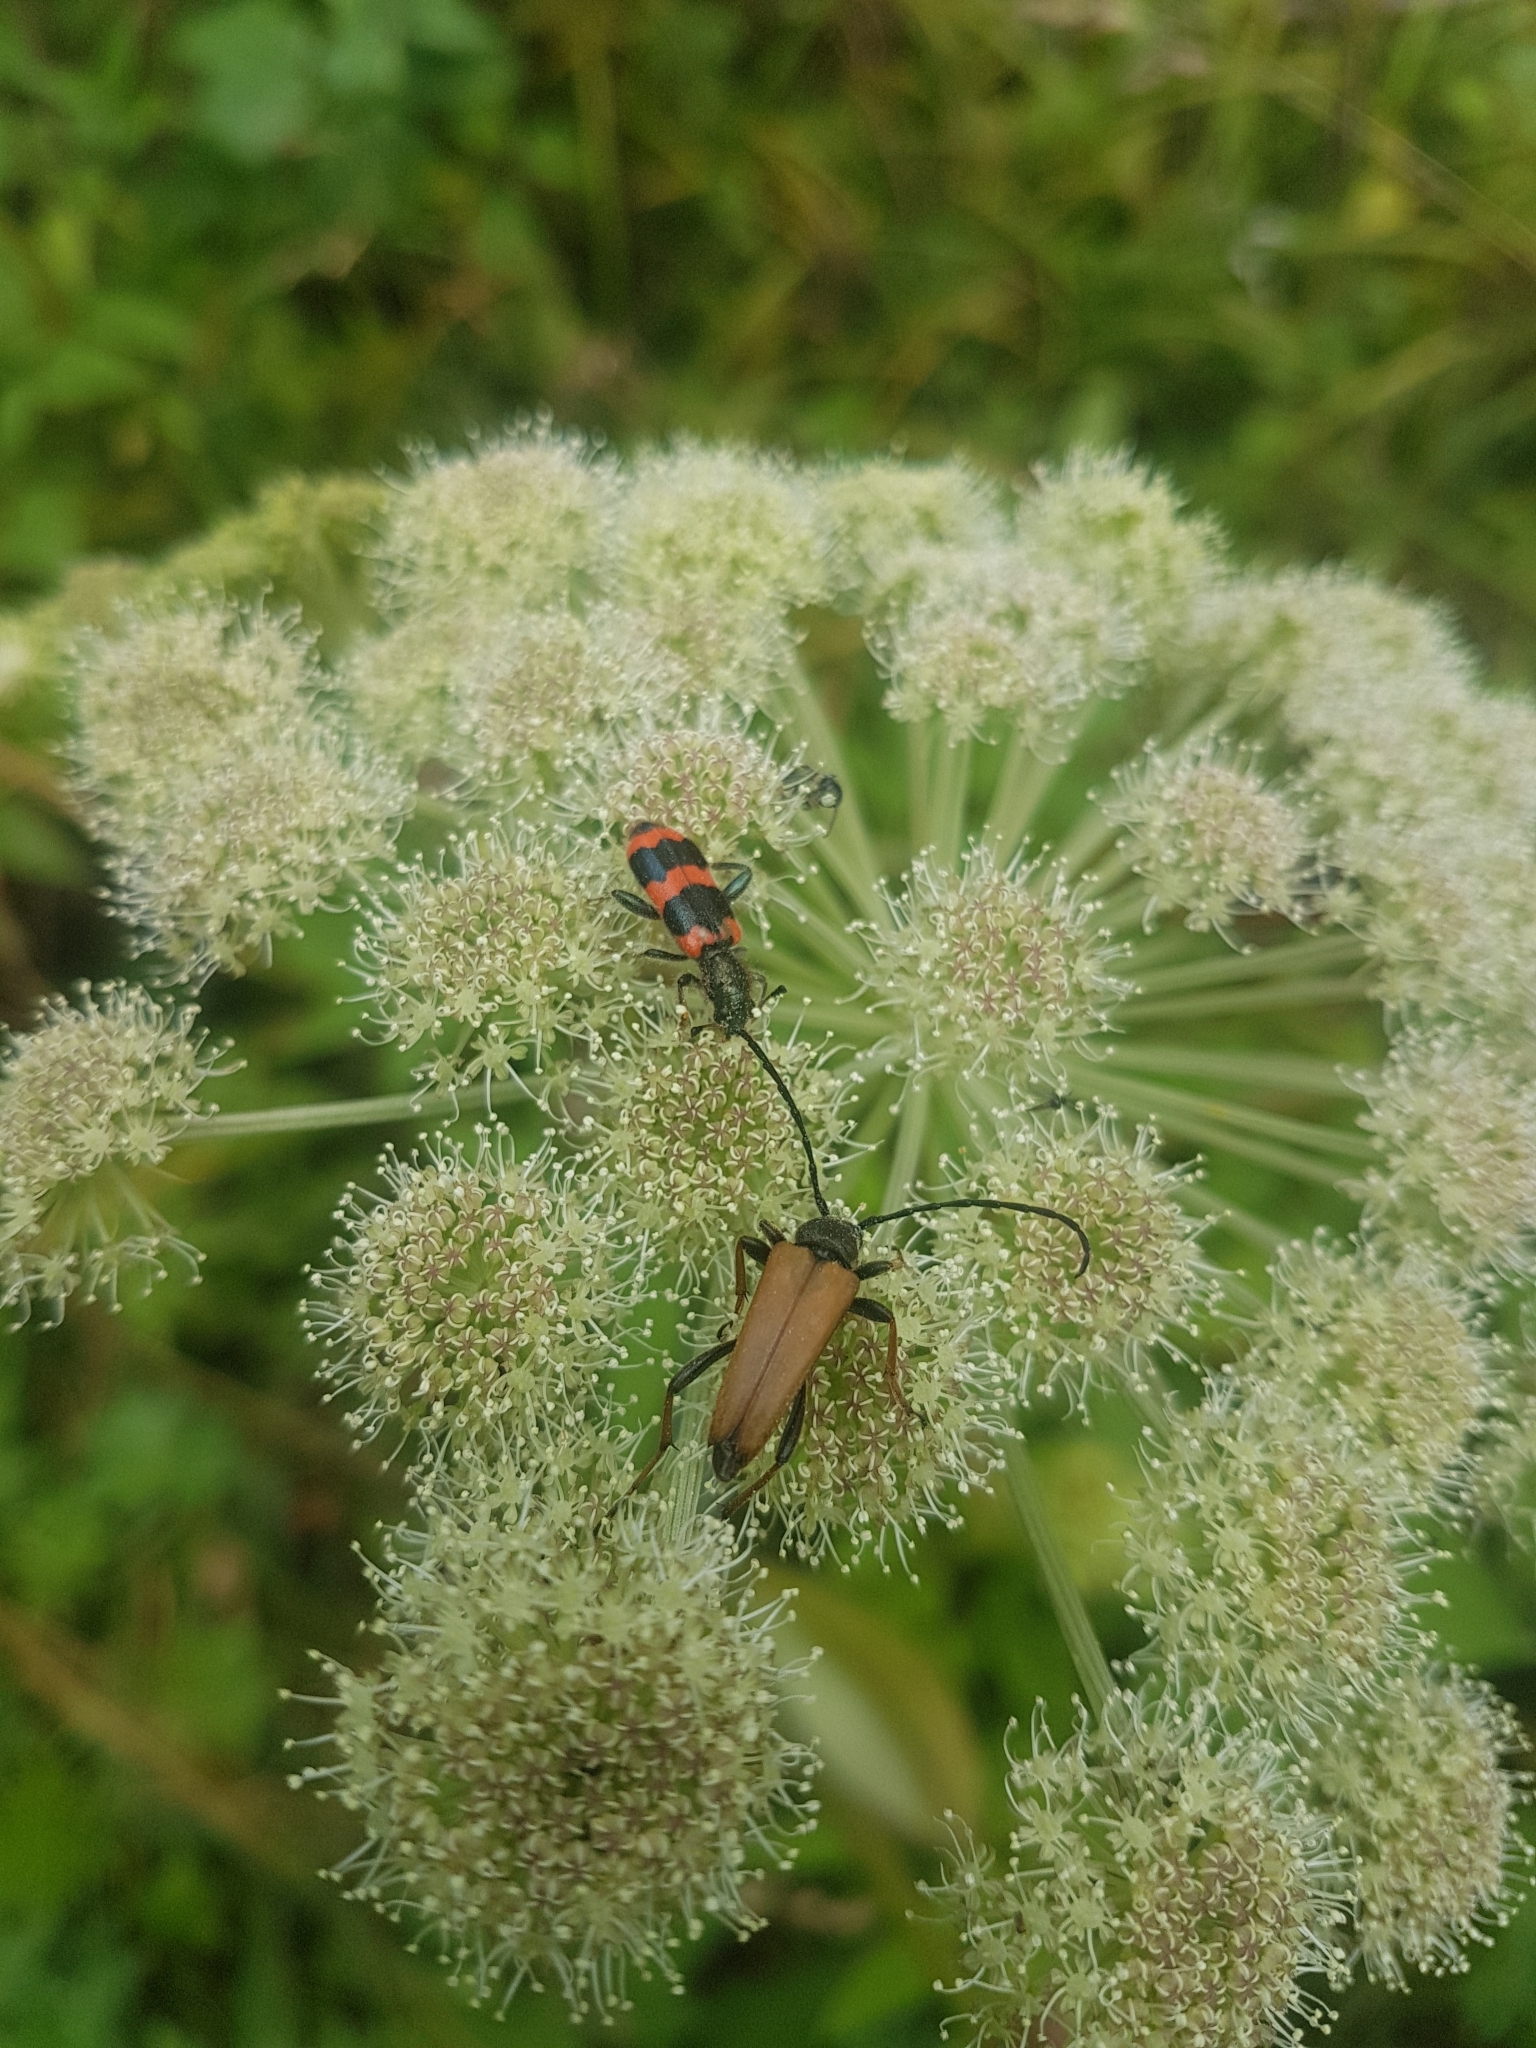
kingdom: Plantae
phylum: Tracheophyta
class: Magnoliopsida
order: Apiales
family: Apiaceae
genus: Angelica
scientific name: Angelica sylvestris
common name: Wild angelica
